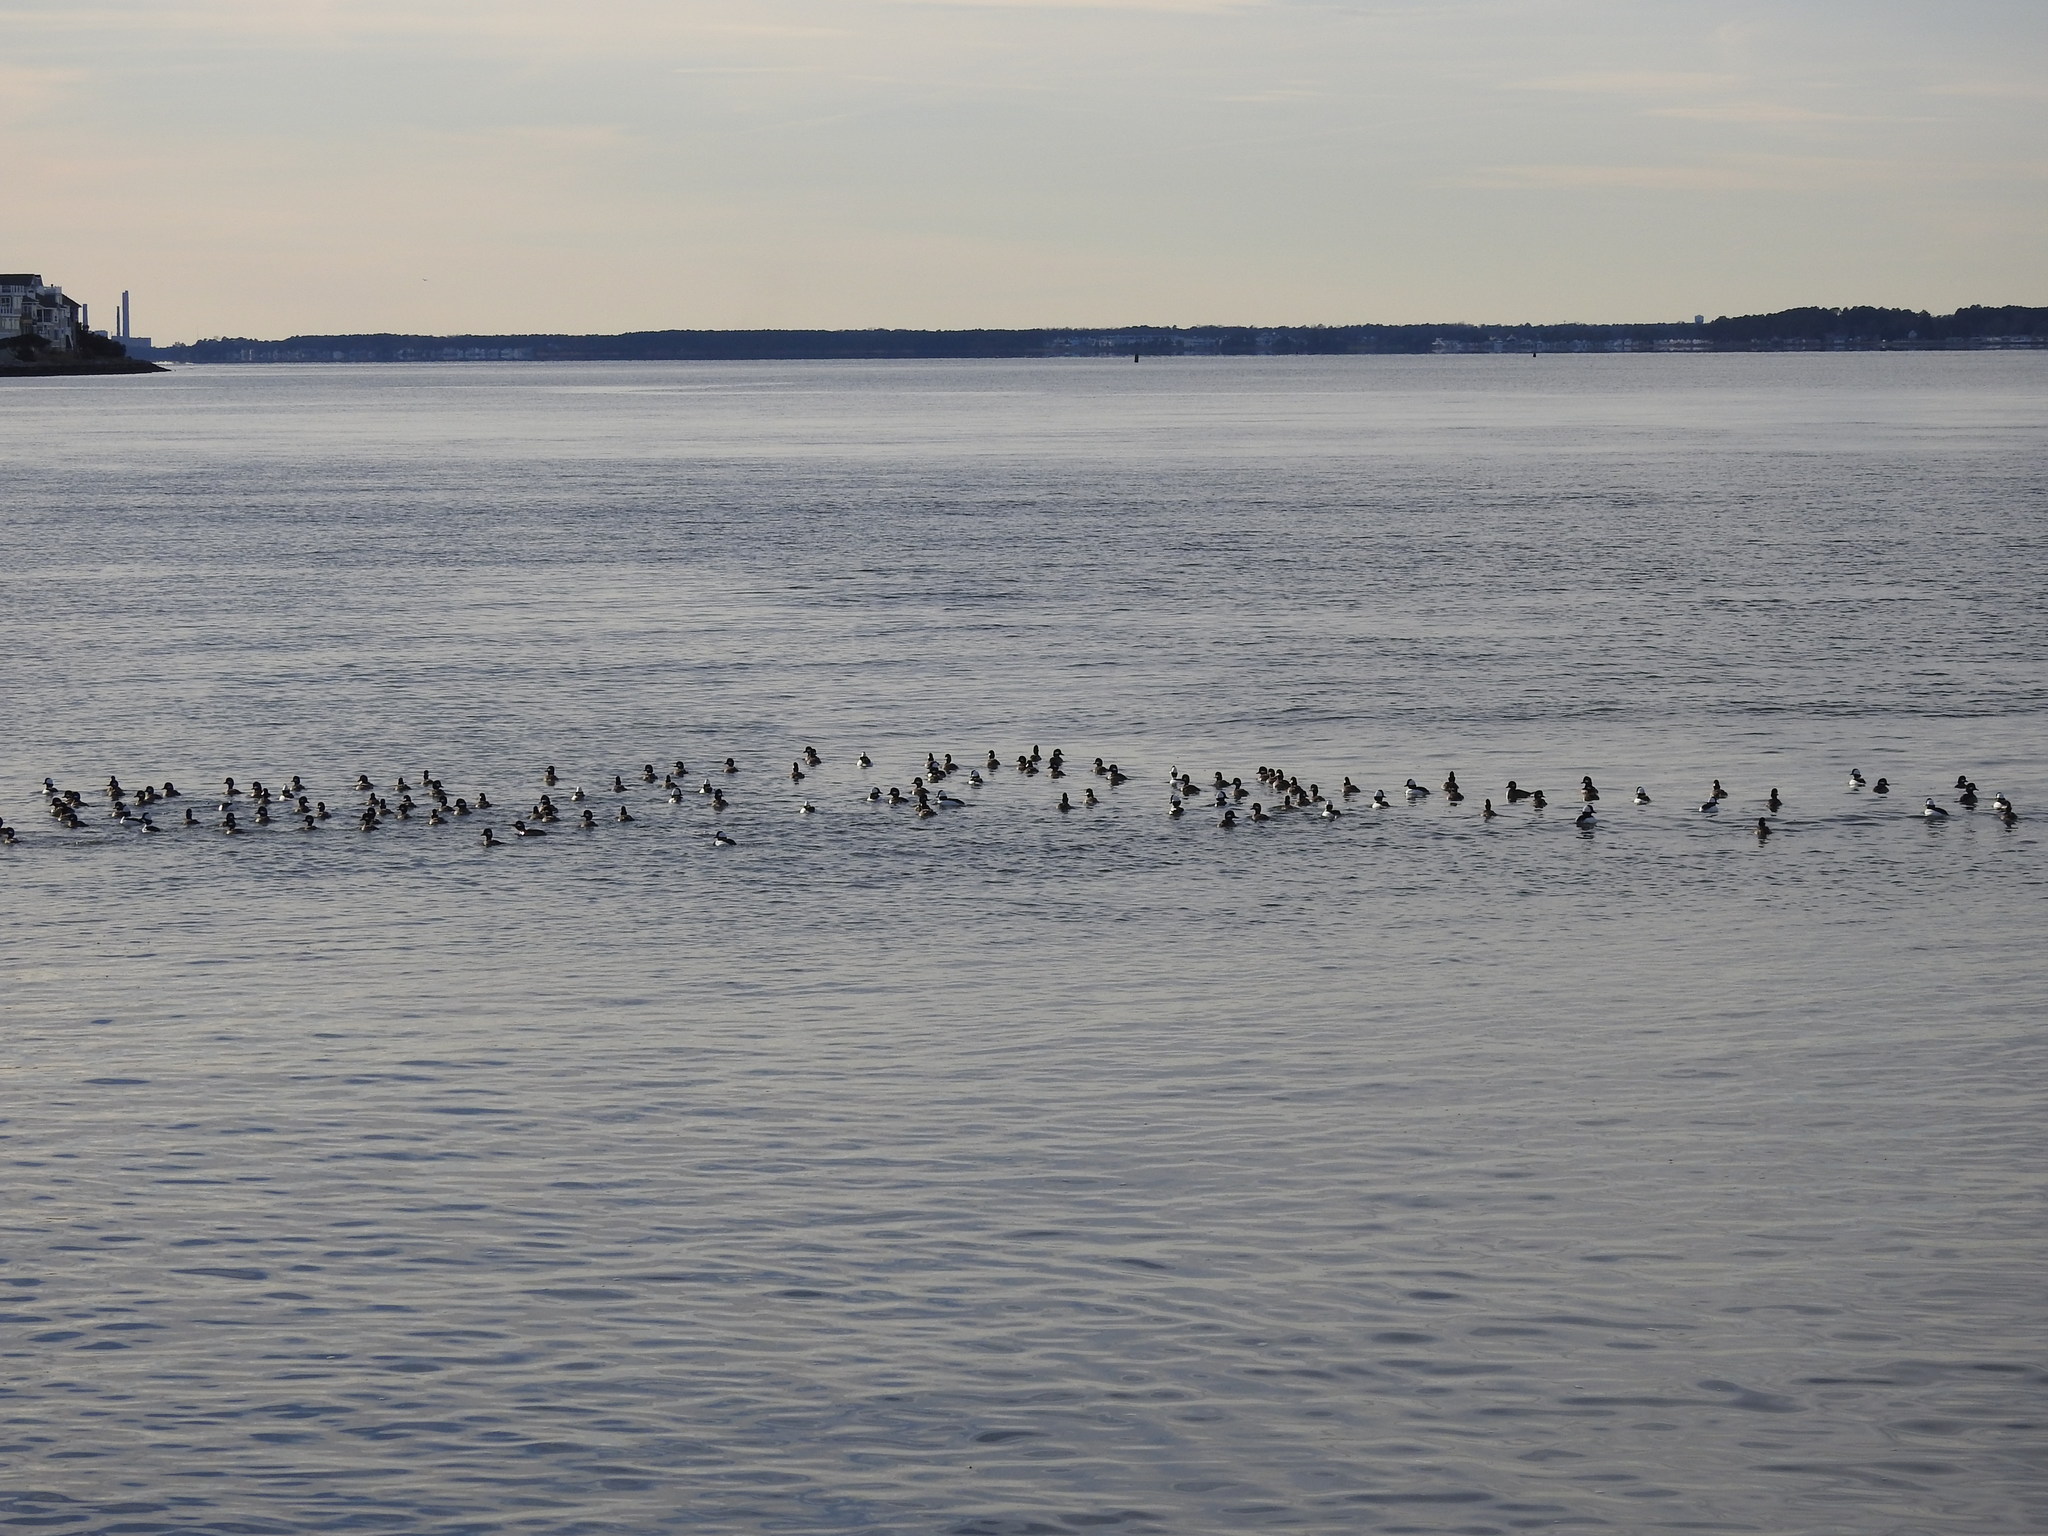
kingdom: Animalia
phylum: Chordata
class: Aves
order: Anseriformes
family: Anatidae
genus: Bucephala
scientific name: Bucephala albeola
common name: Bufflehead
